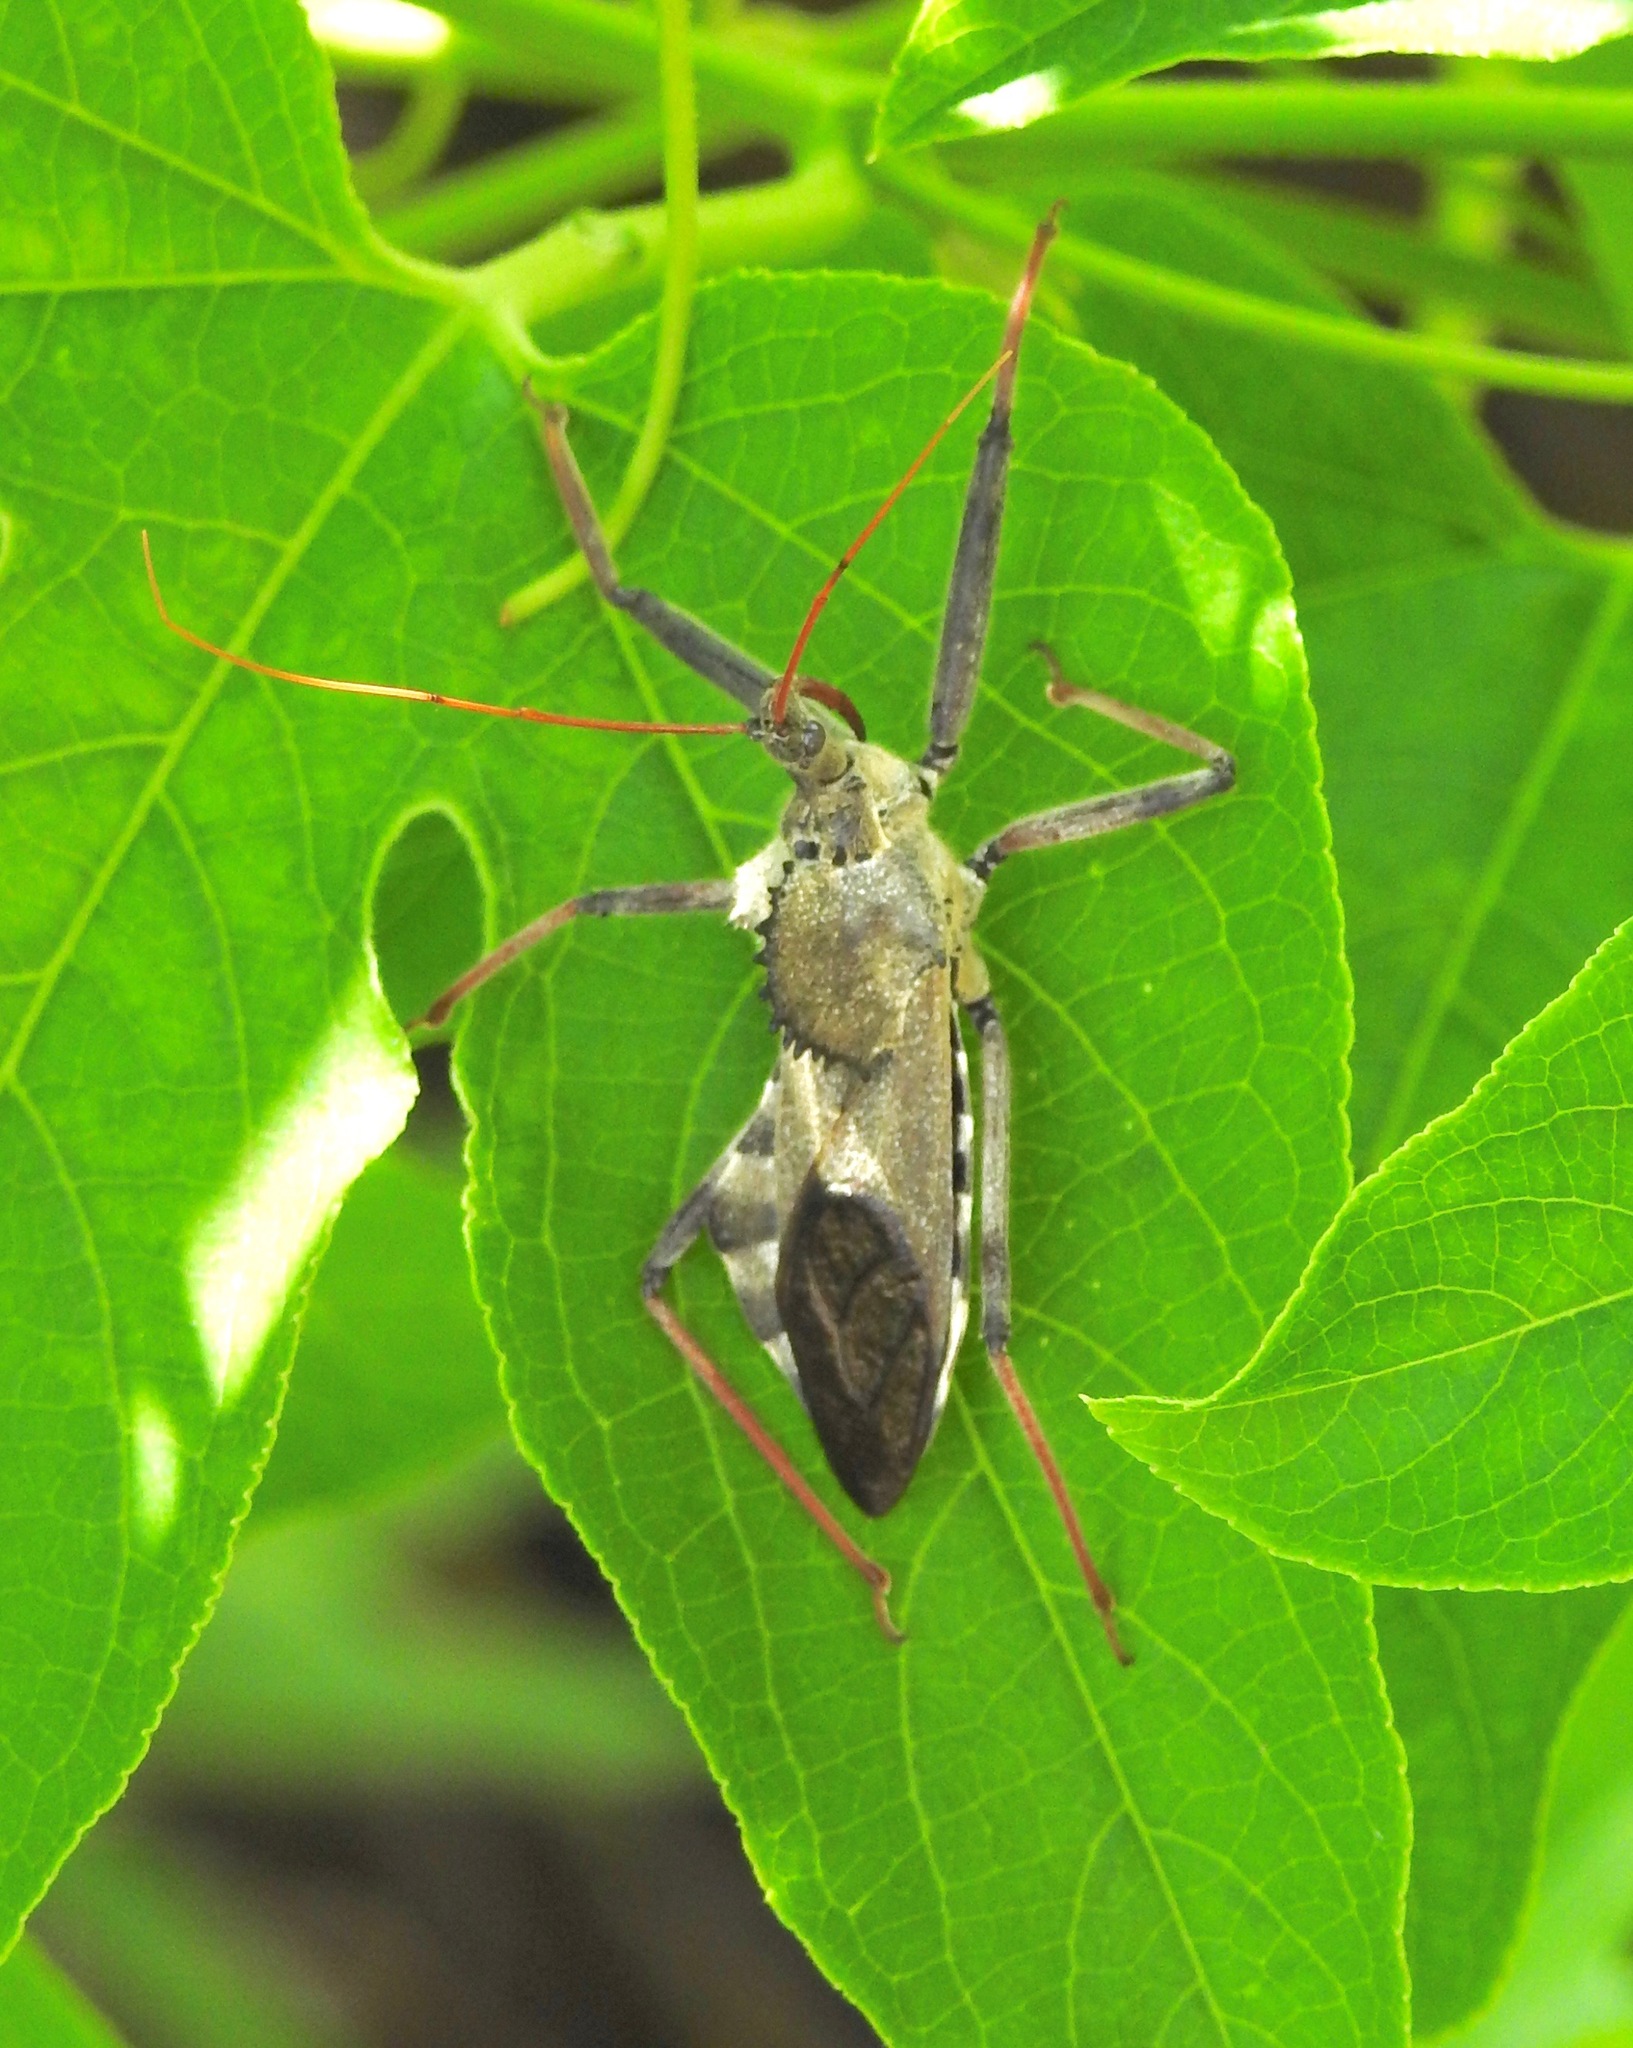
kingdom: Animalia
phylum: Arthropoda
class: Insecta
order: Hemiptera
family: Reduviidae
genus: Arilus
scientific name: Arilus cristatus
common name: North american wheel bug
